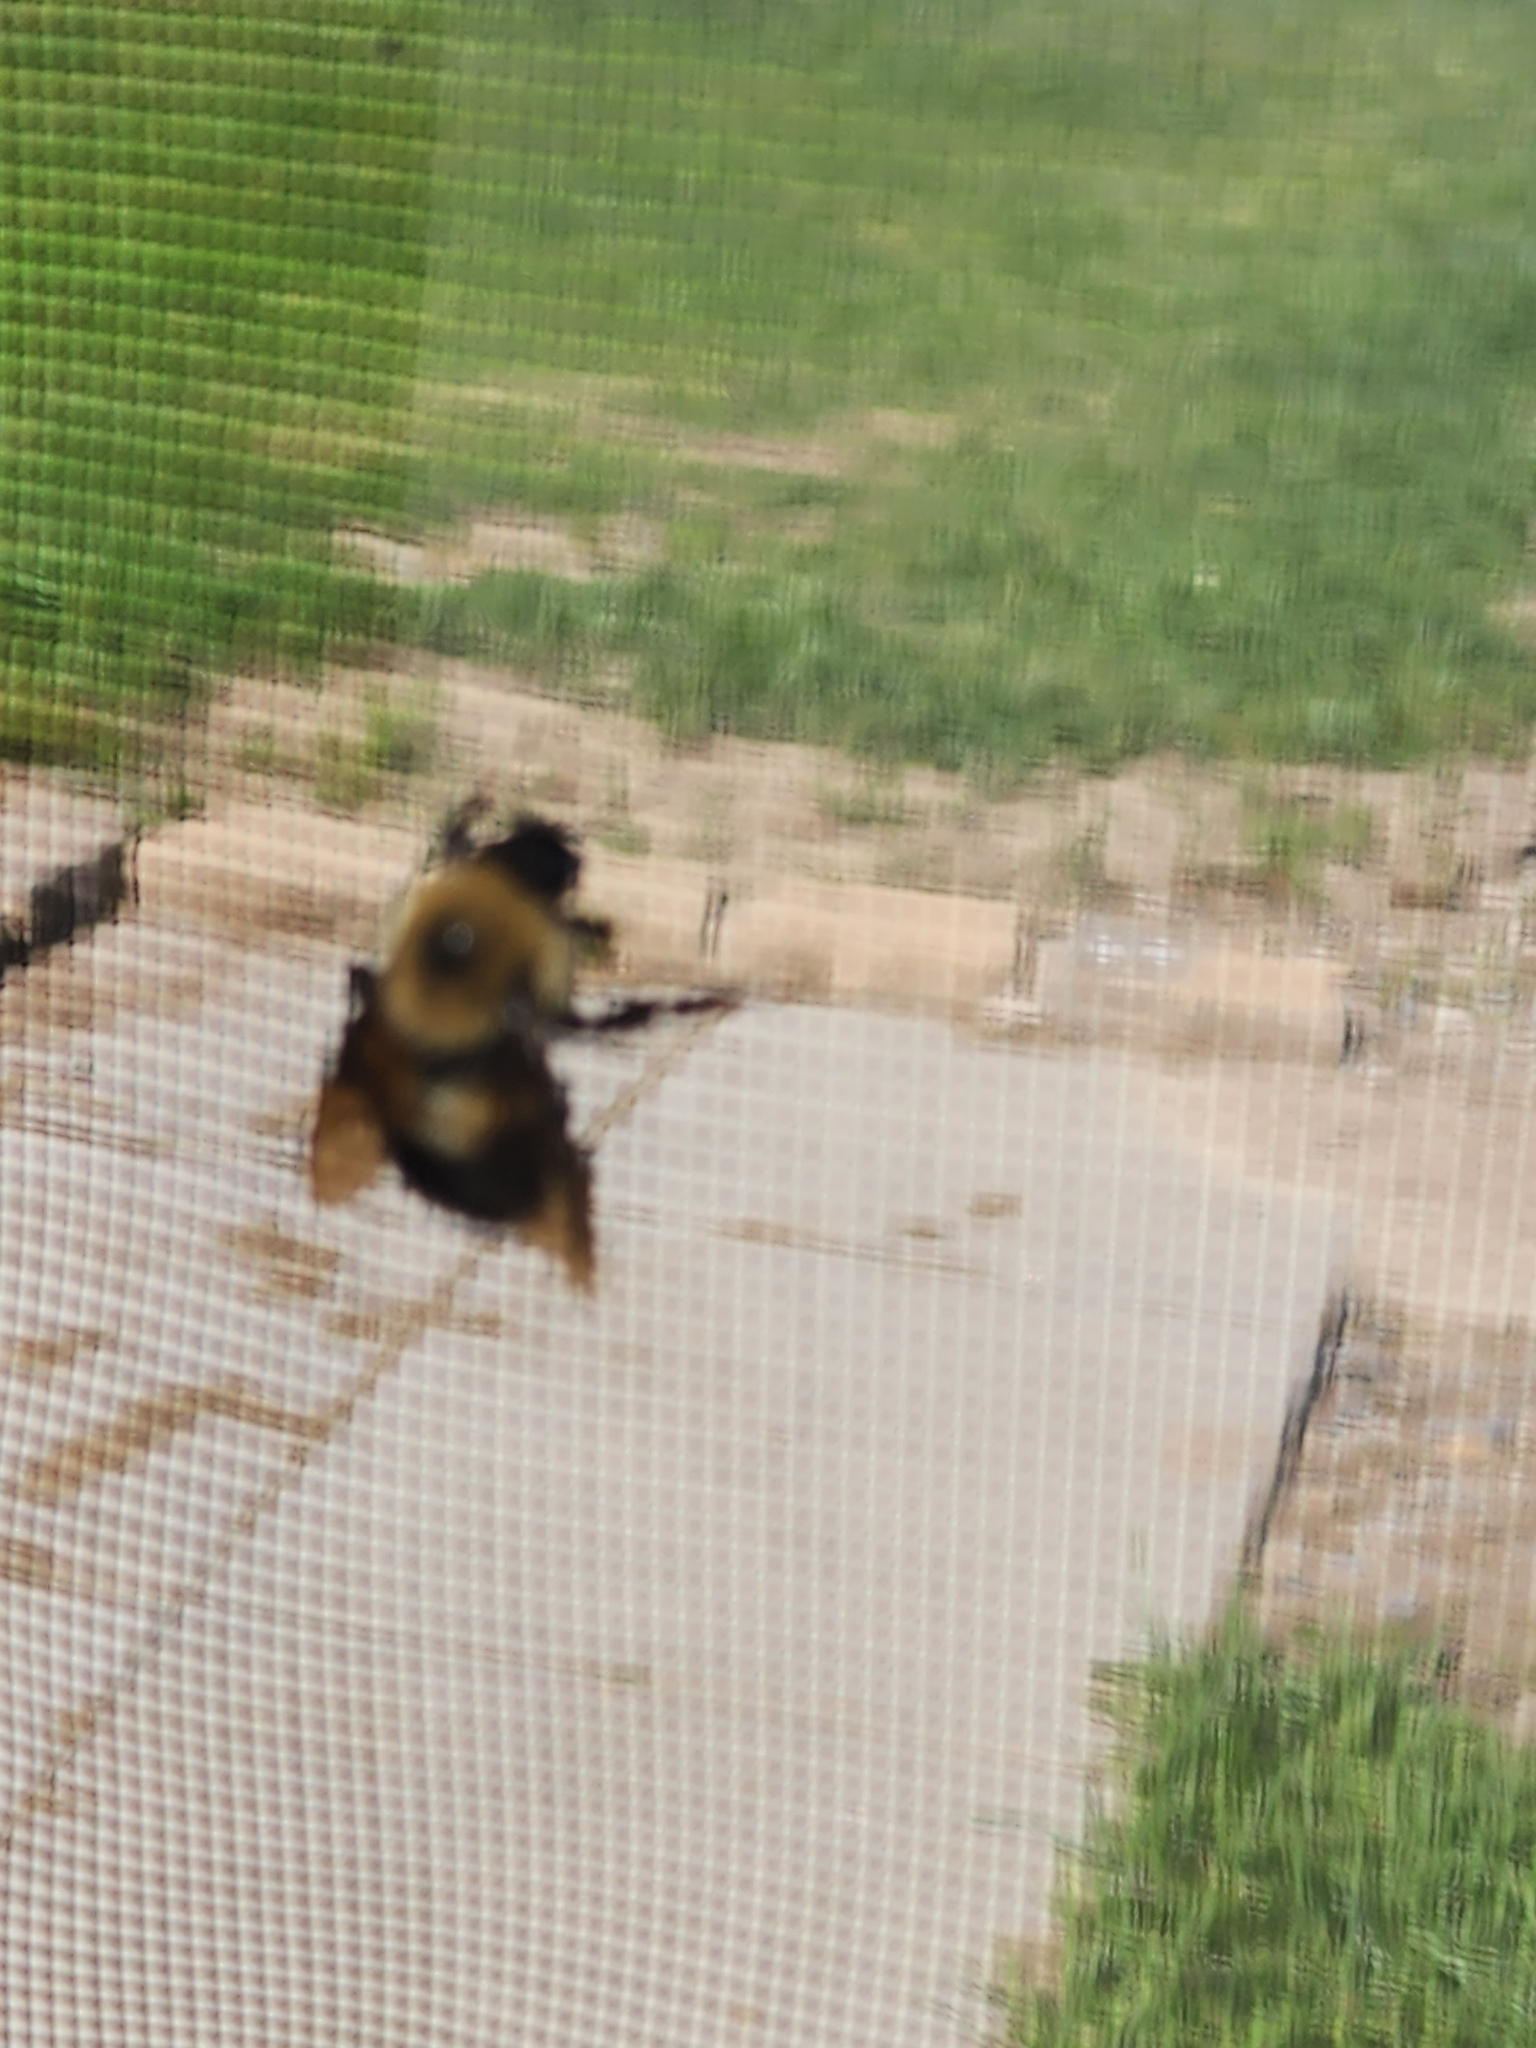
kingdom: Animalia
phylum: Arthropoda
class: Insecta
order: Hymenoptera
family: Apidae
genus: Bombus
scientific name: Bombus griseocollis
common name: Brown-belted bumble bee
